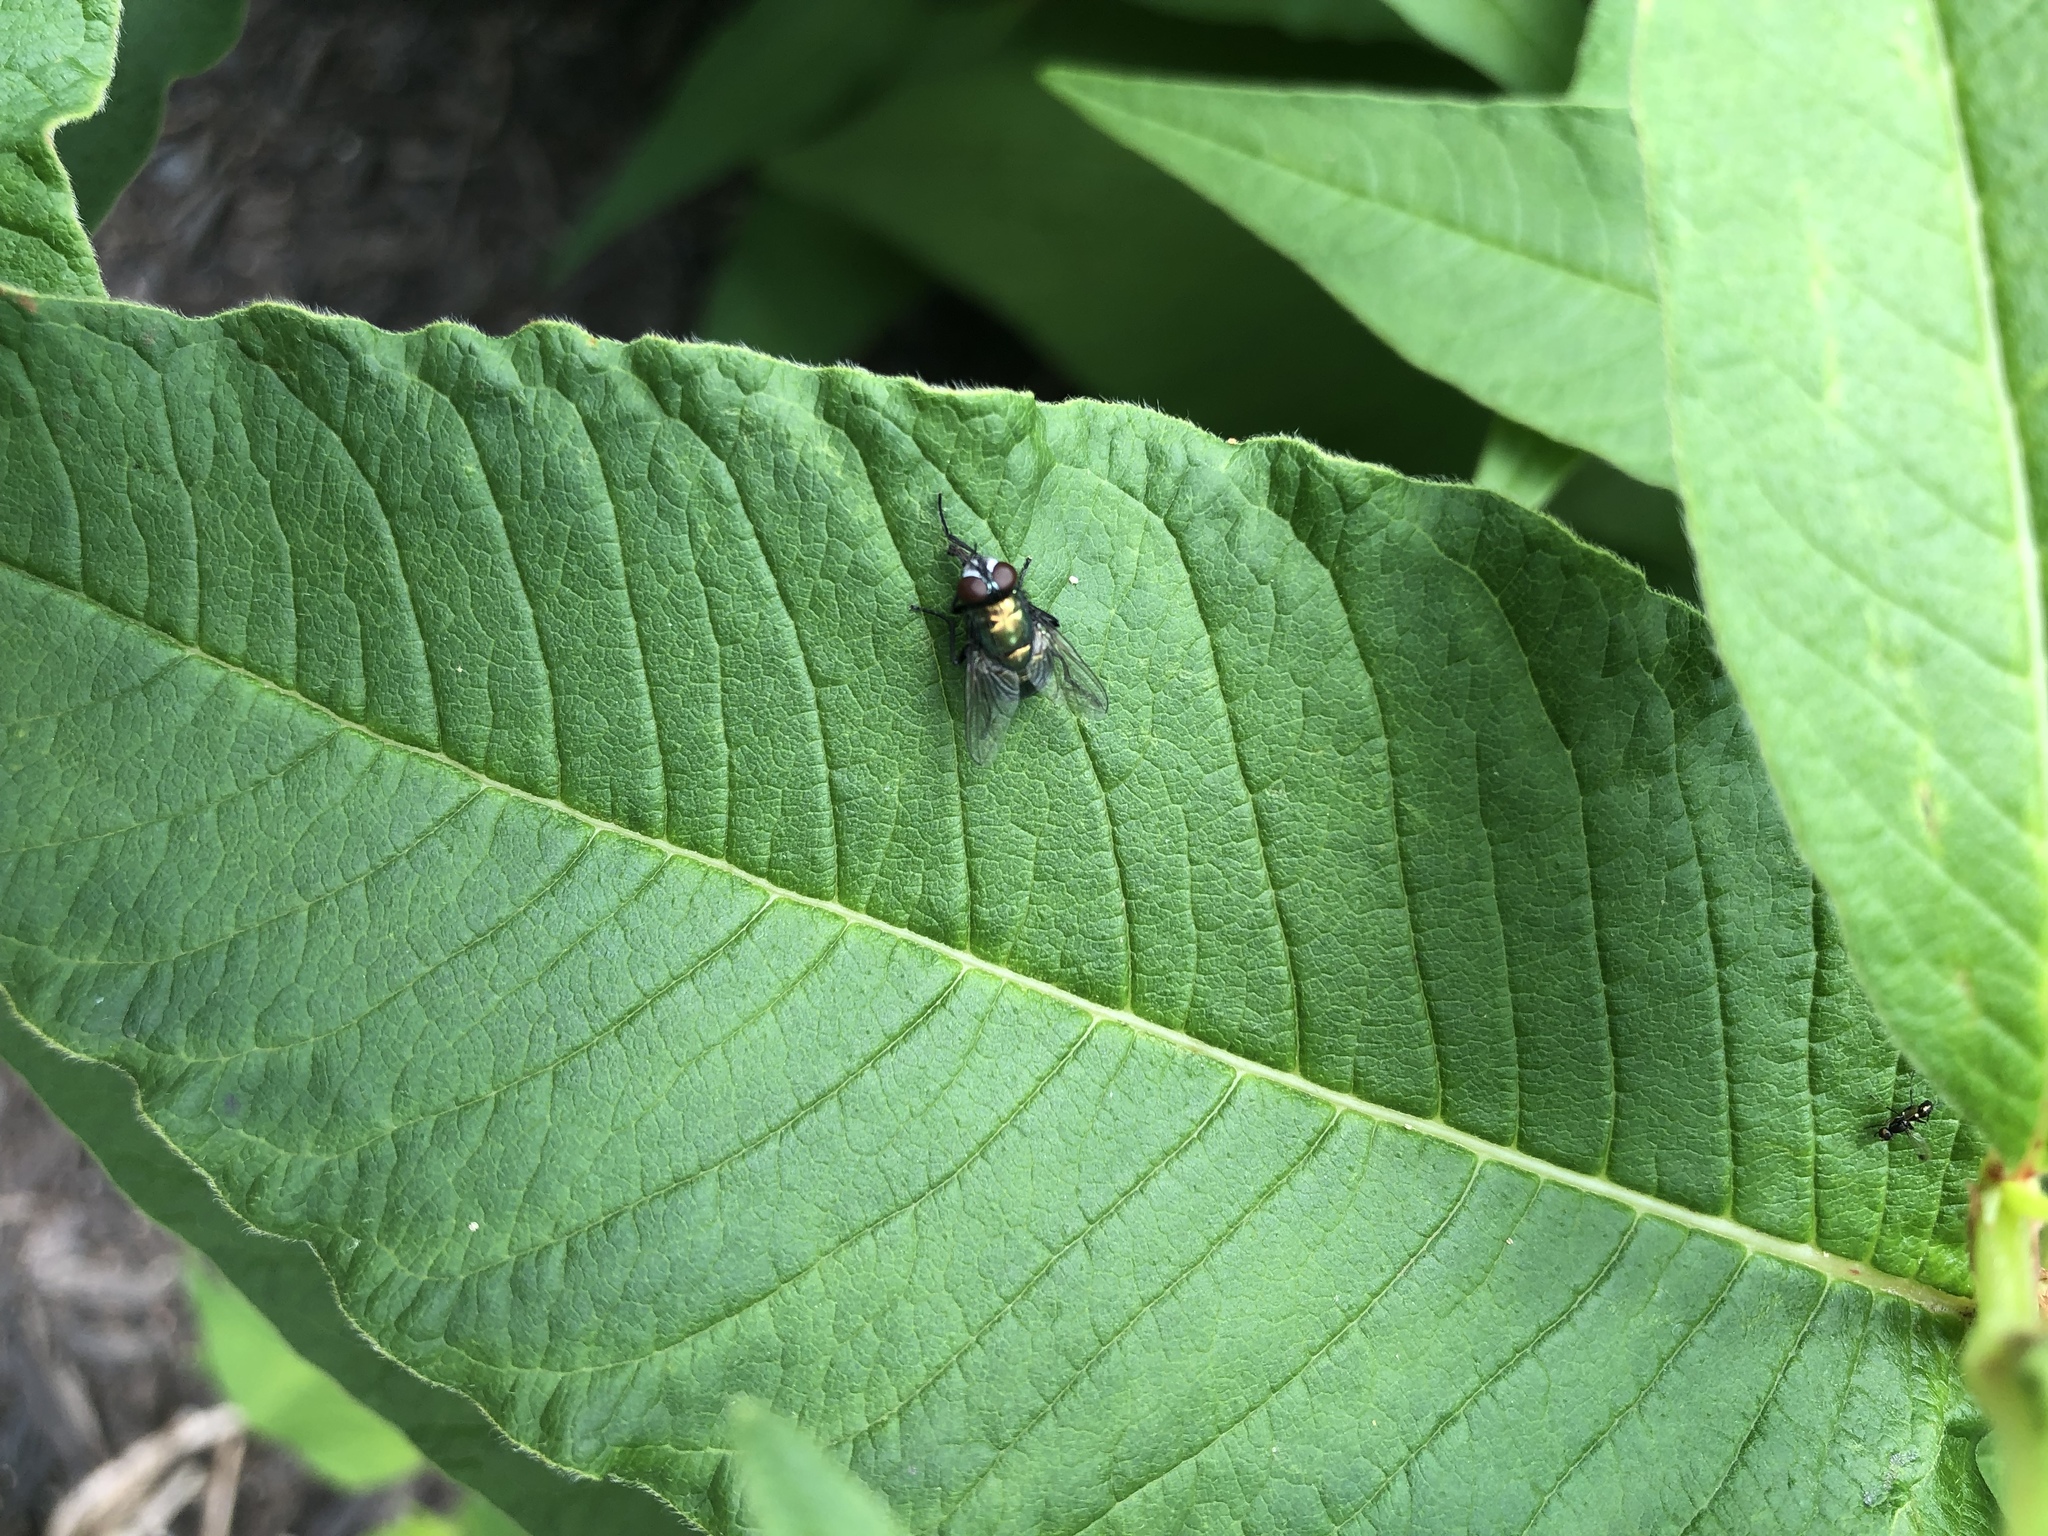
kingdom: Animalia
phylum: Arthropoda
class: Insecta
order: Diptera
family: Calliphoridae
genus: Lucilia
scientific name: Lucilia sericata
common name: Blow fly
